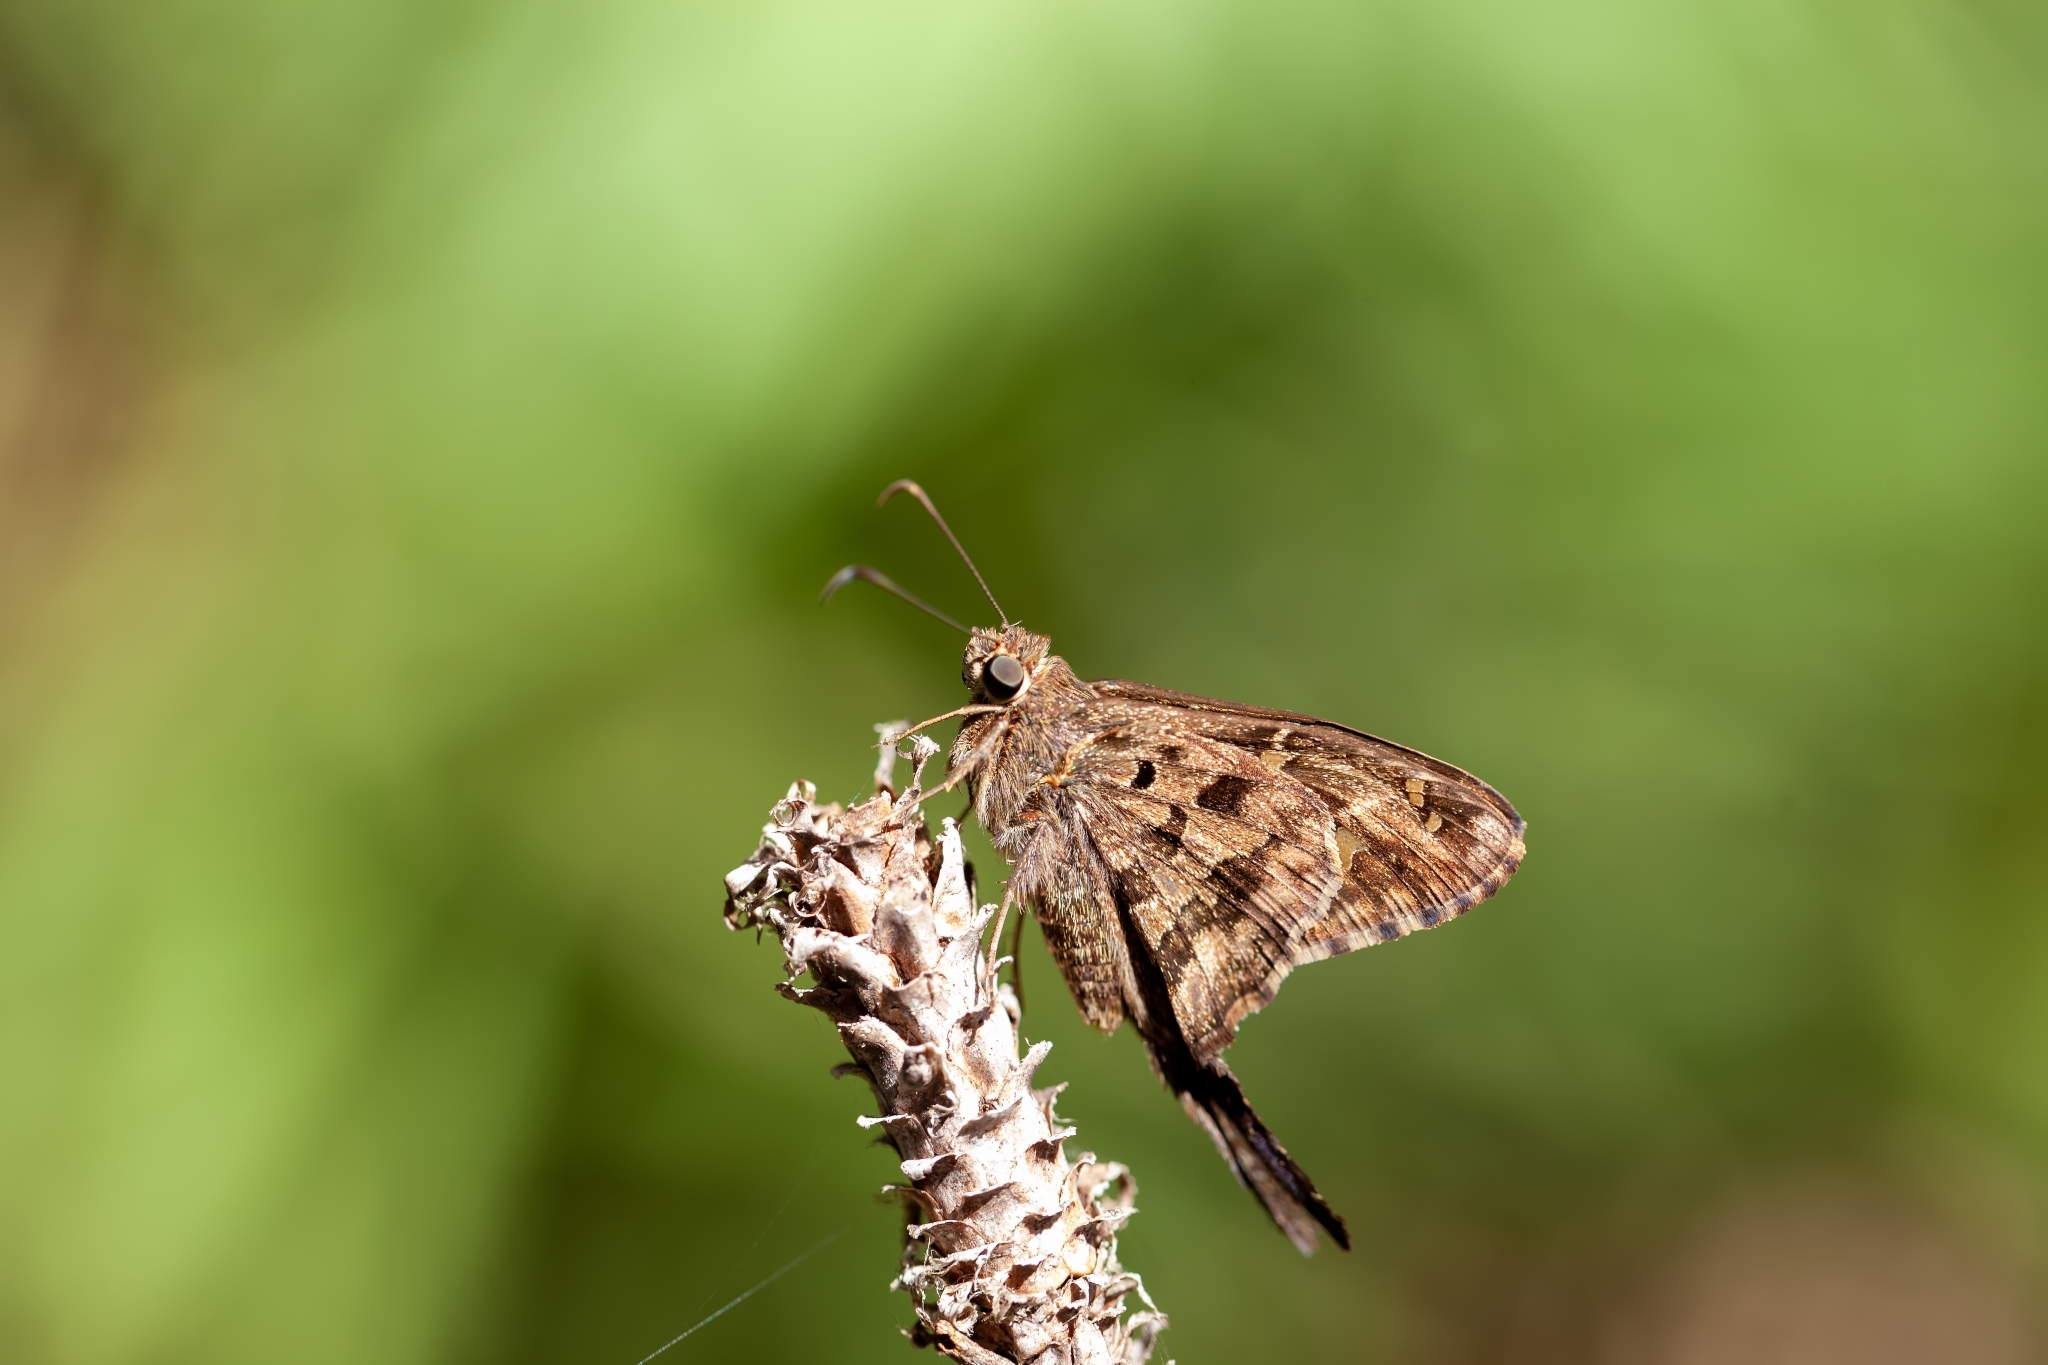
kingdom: Animalia
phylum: Arthropoda
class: Insecta
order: Lepidoptera
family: Hesperiidae
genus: Thorybes
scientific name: Thorybes
